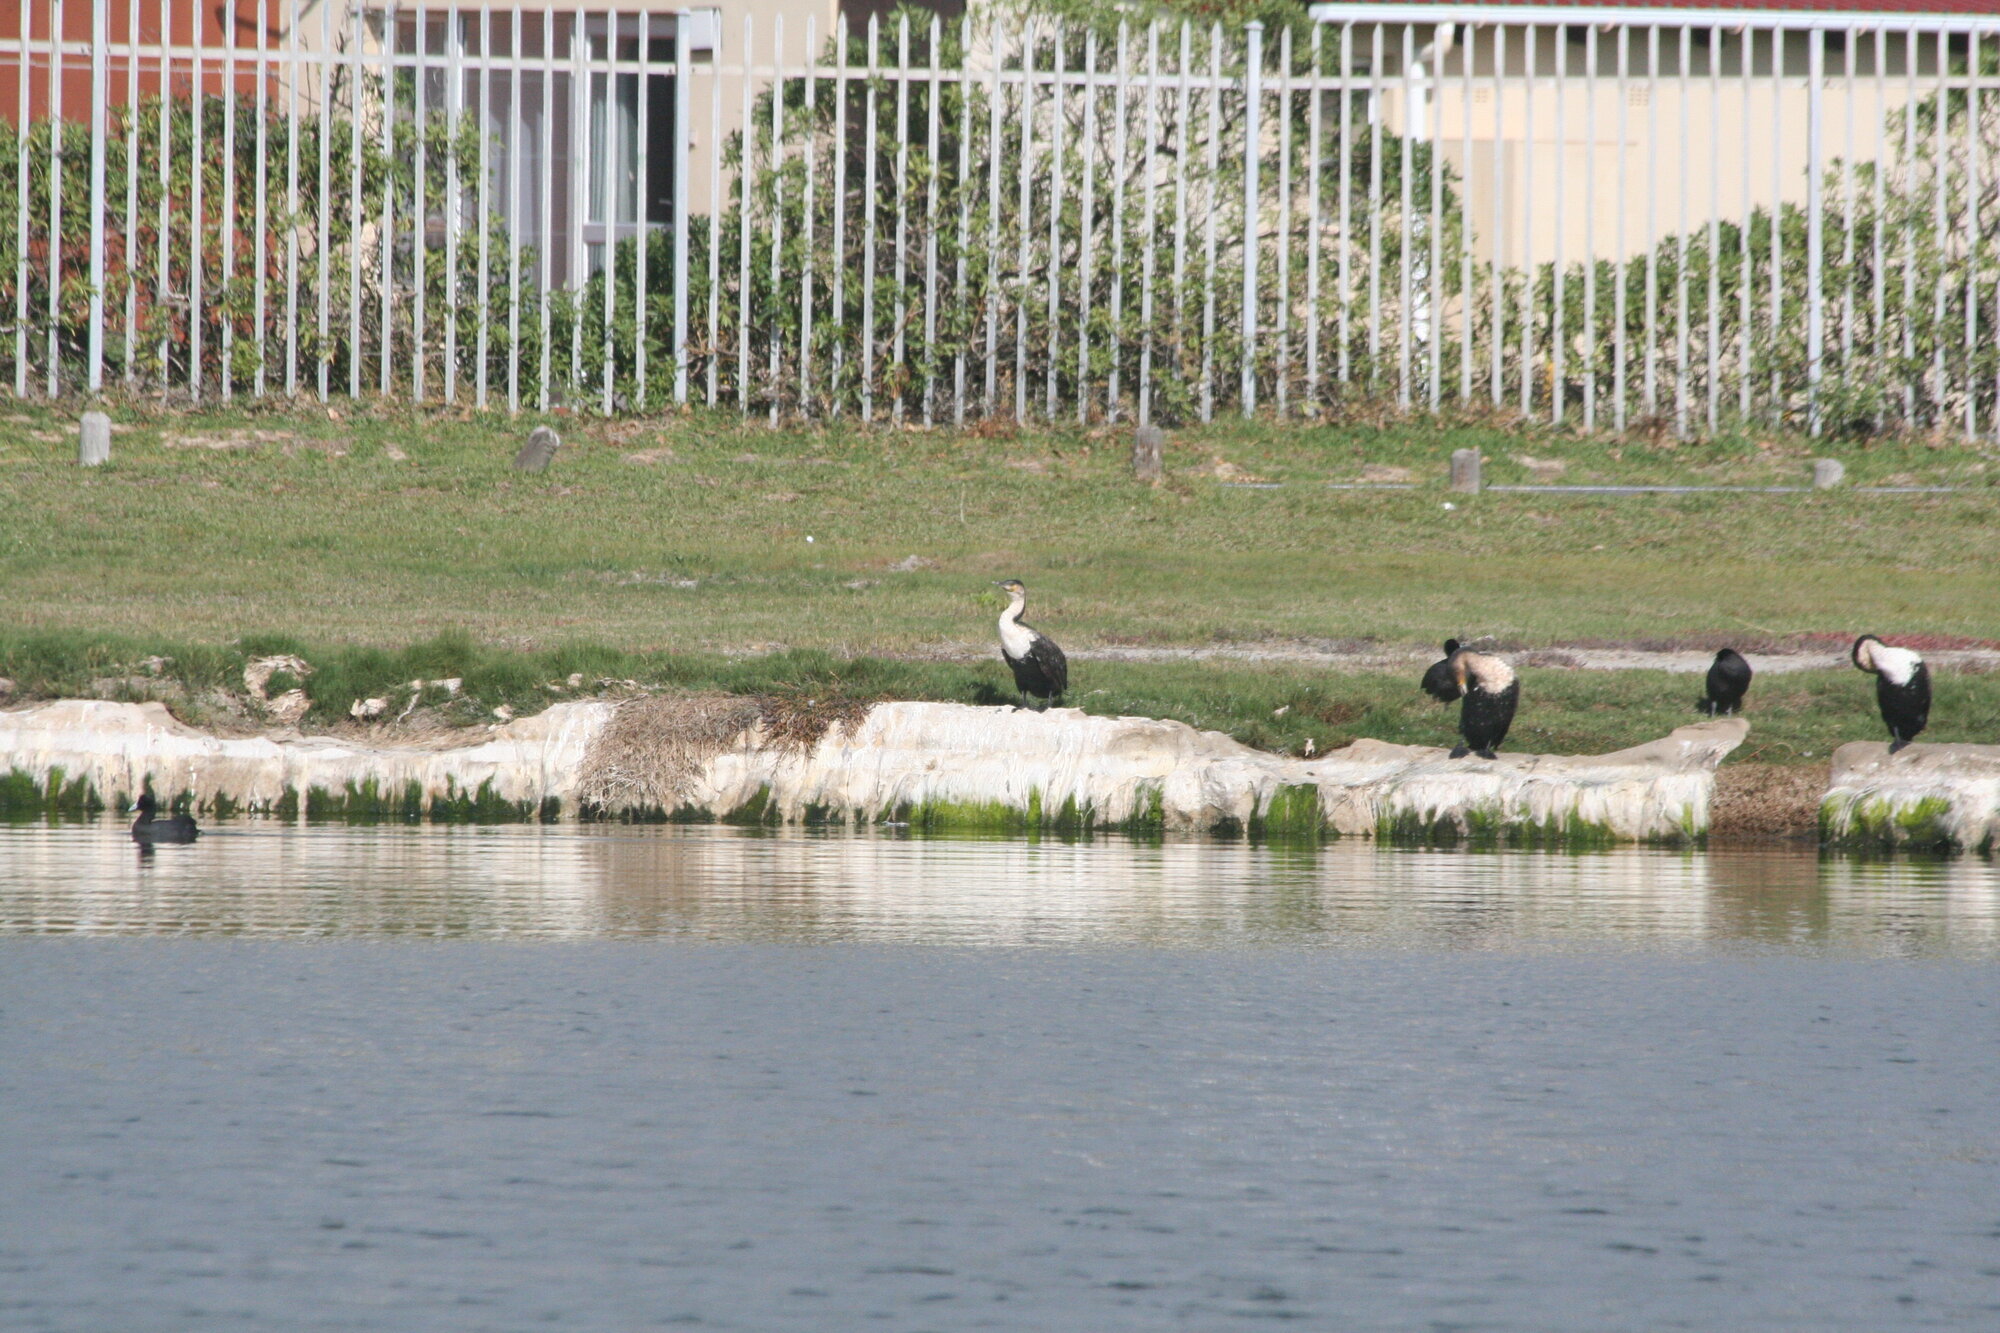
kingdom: Animalia
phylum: Chordata
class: Aves
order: Suliformes
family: Phalacrocoracidae
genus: Phalacrocorax
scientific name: Phalacrocorax carbo
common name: Great cormorant
